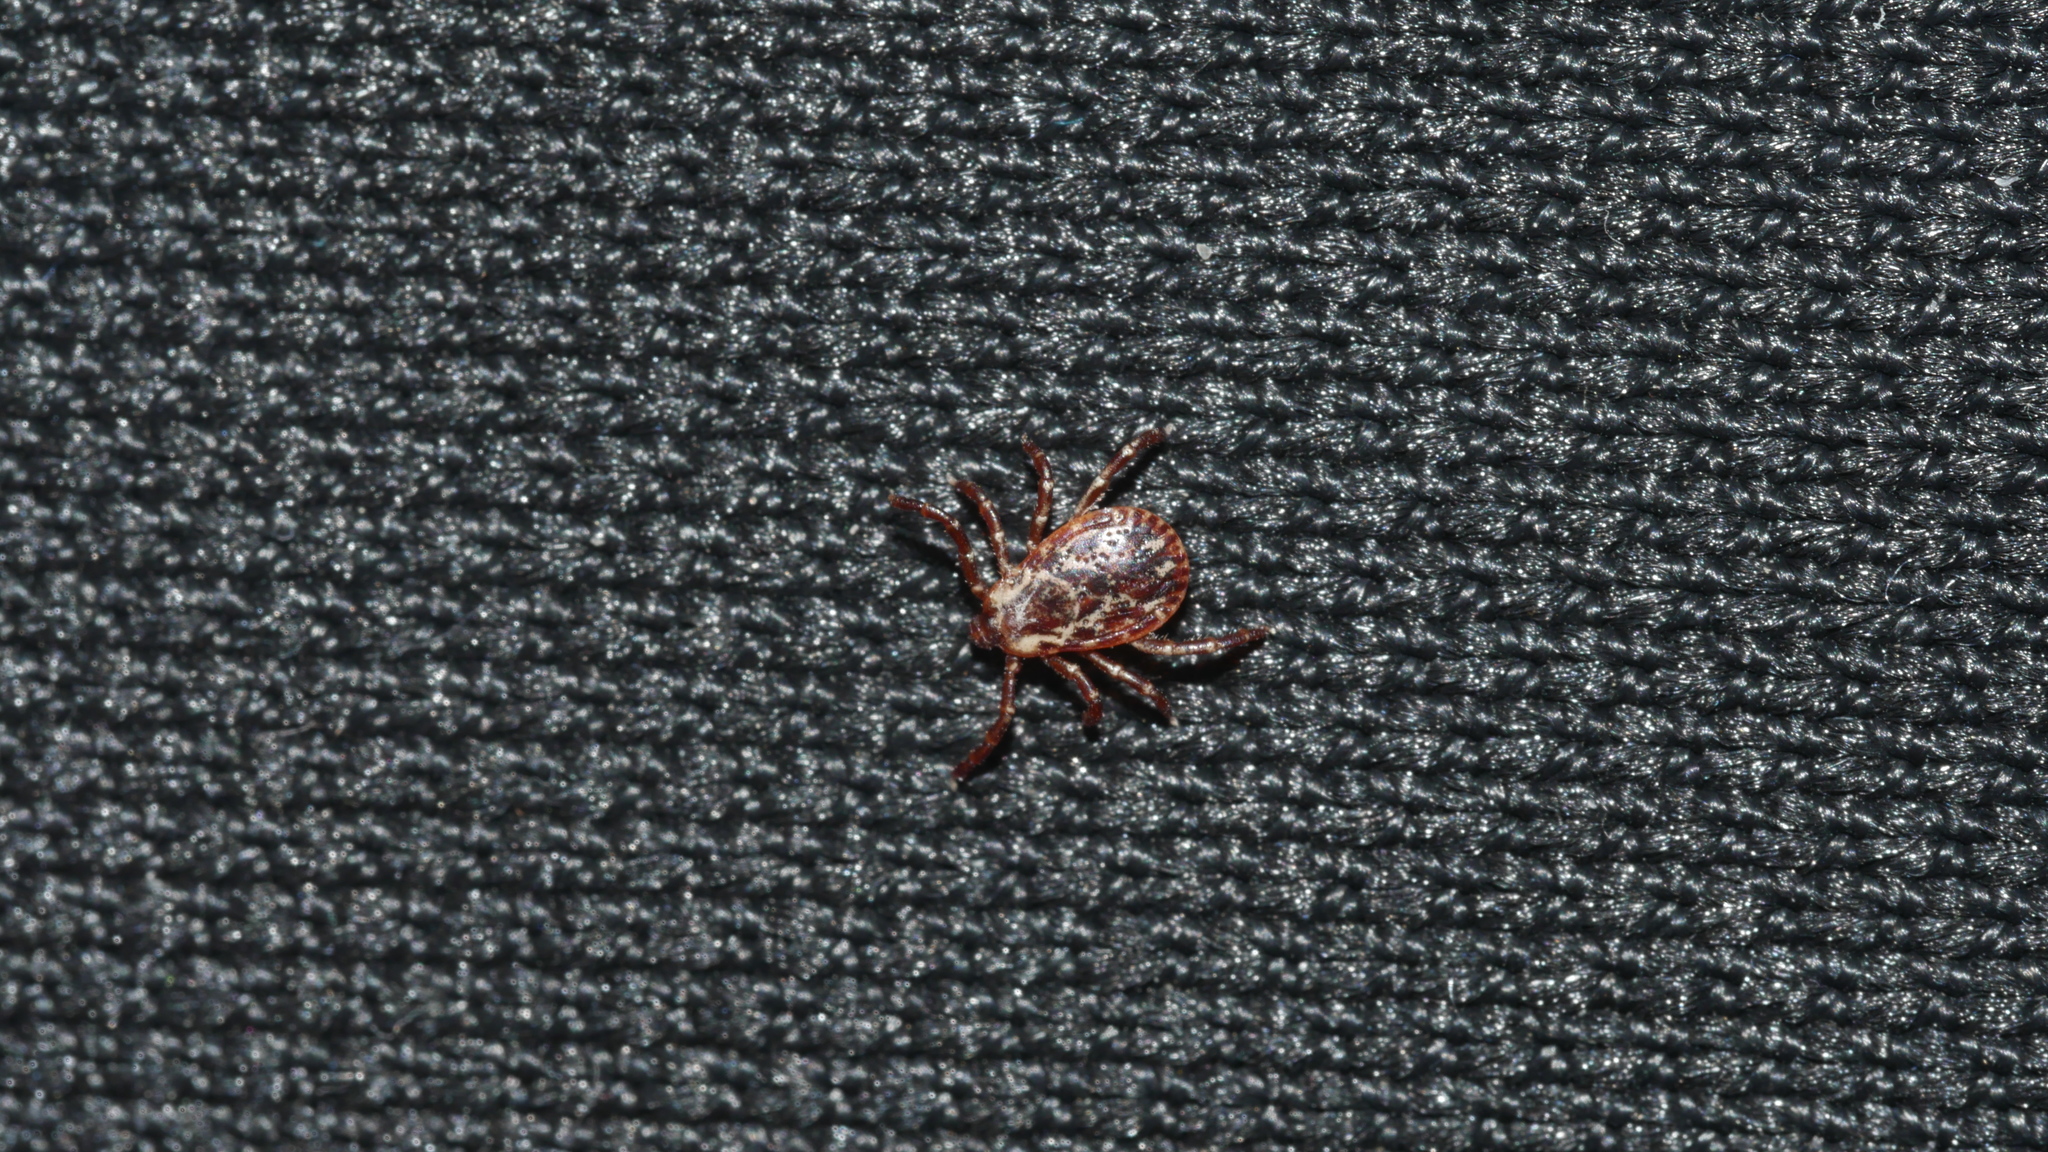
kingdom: Animalia
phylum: Arthropoda
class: Arachnida
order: Ixodida
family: Ixodidae
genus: Dermacentor
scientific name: Dermacentor variabilis
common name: American dog tick
